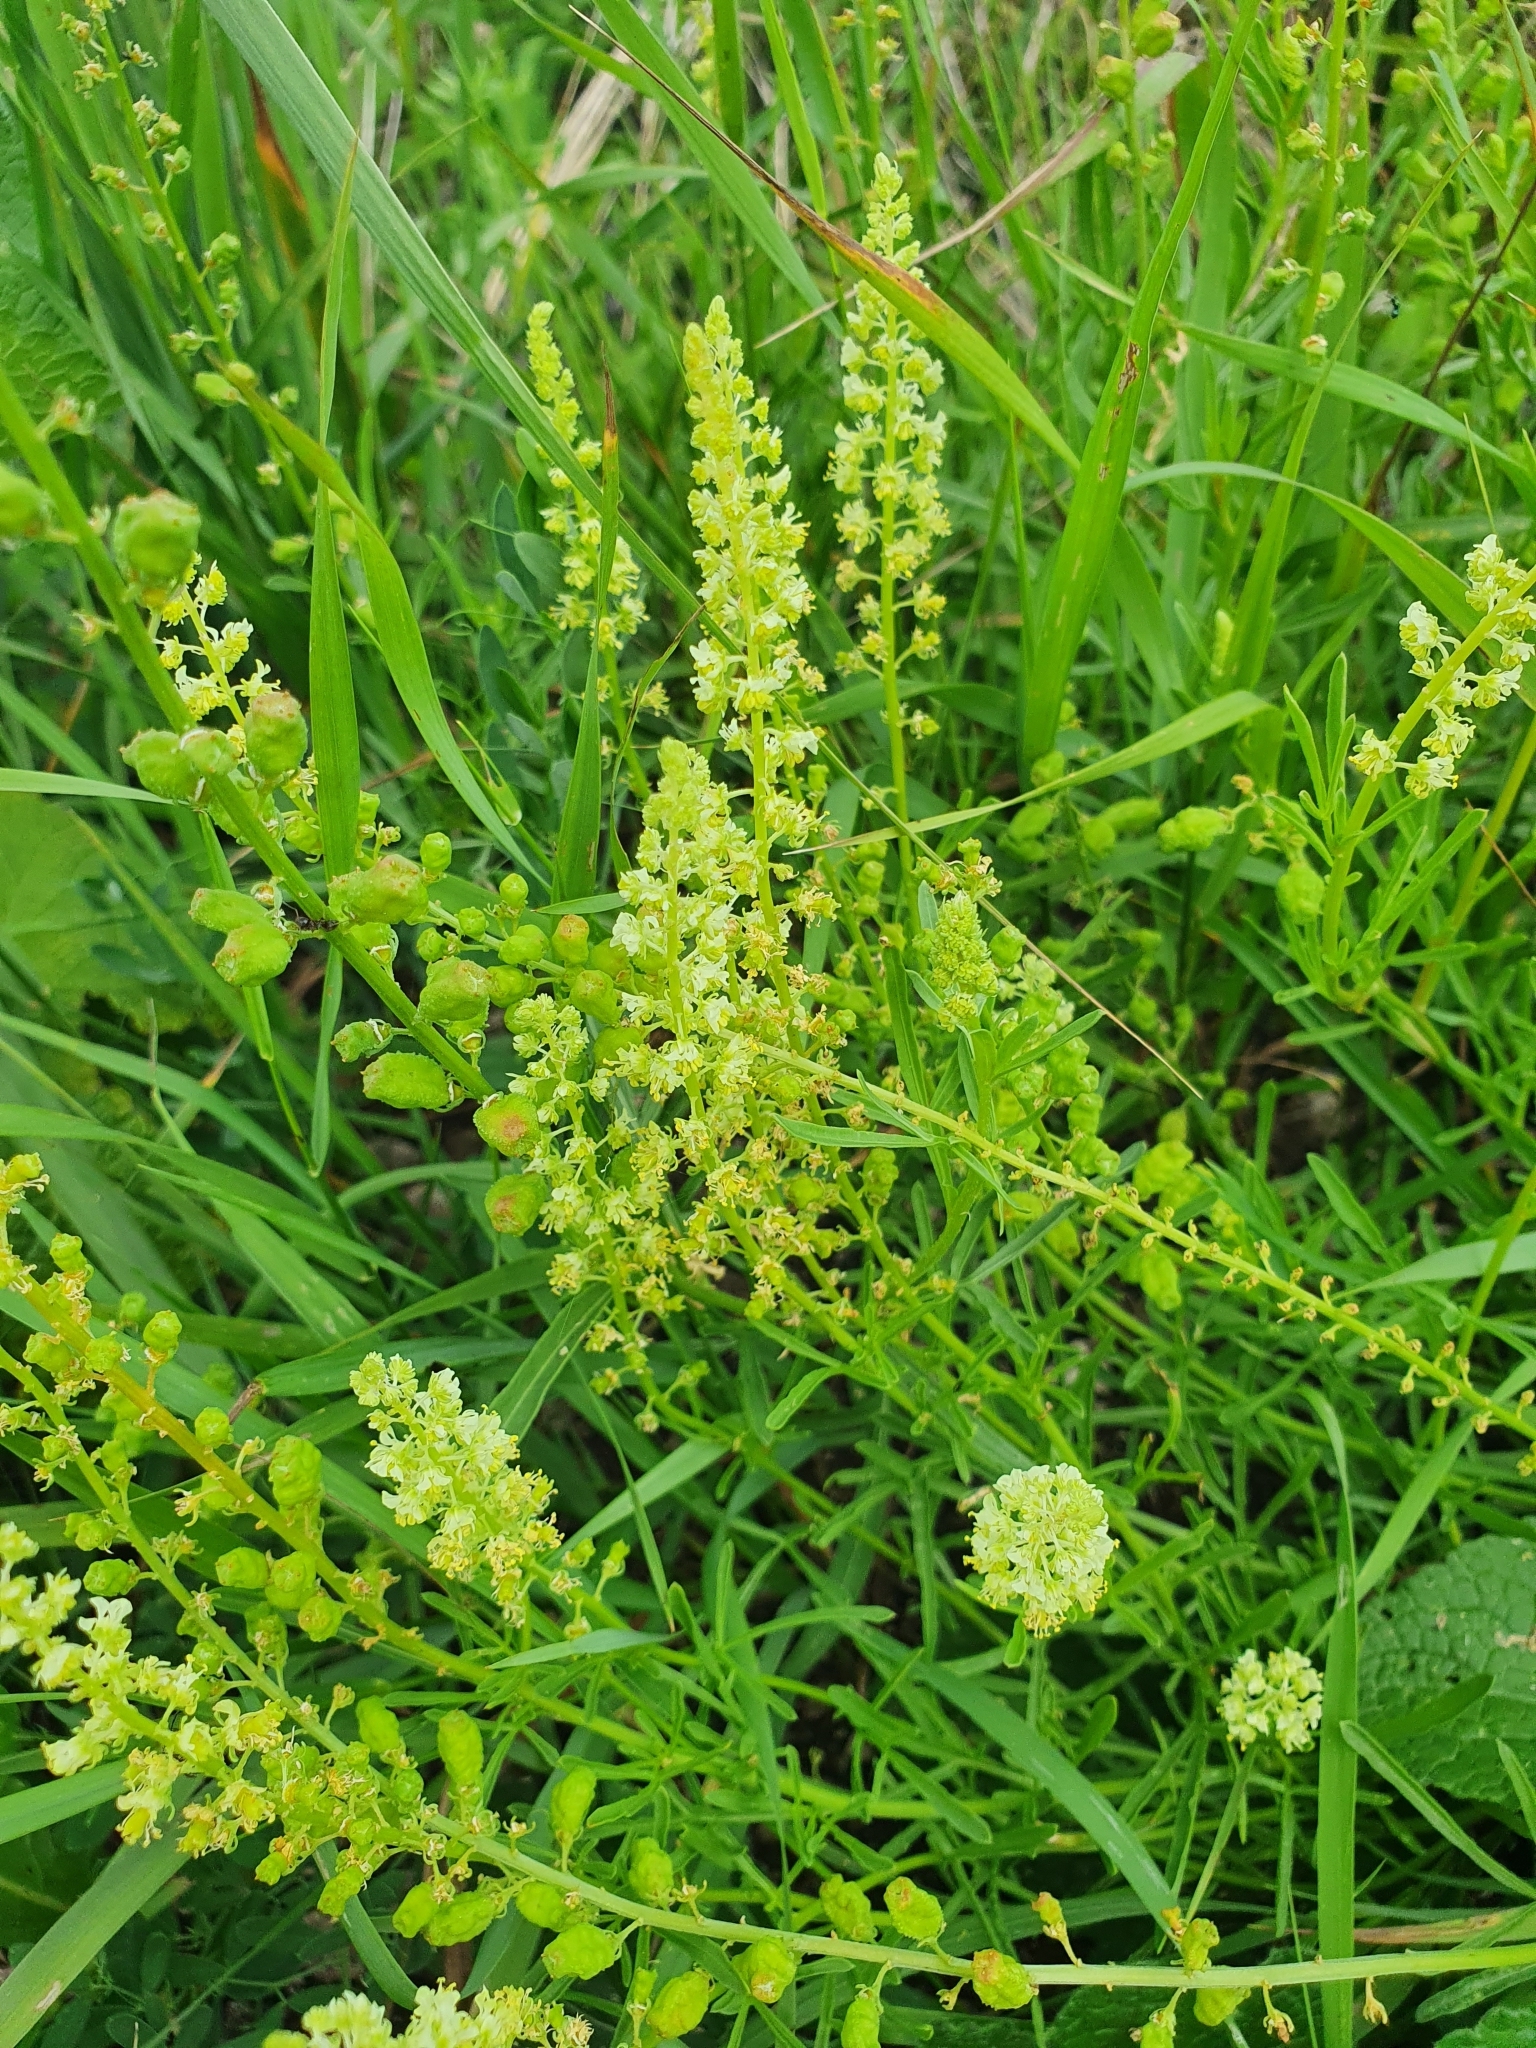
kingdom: Plantae
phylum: Tracheophyta
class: Magnoliopsida
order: Brassicales
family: Resedaceae
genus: Reseda
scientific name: Reseda lutea
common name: Wild mignonette
